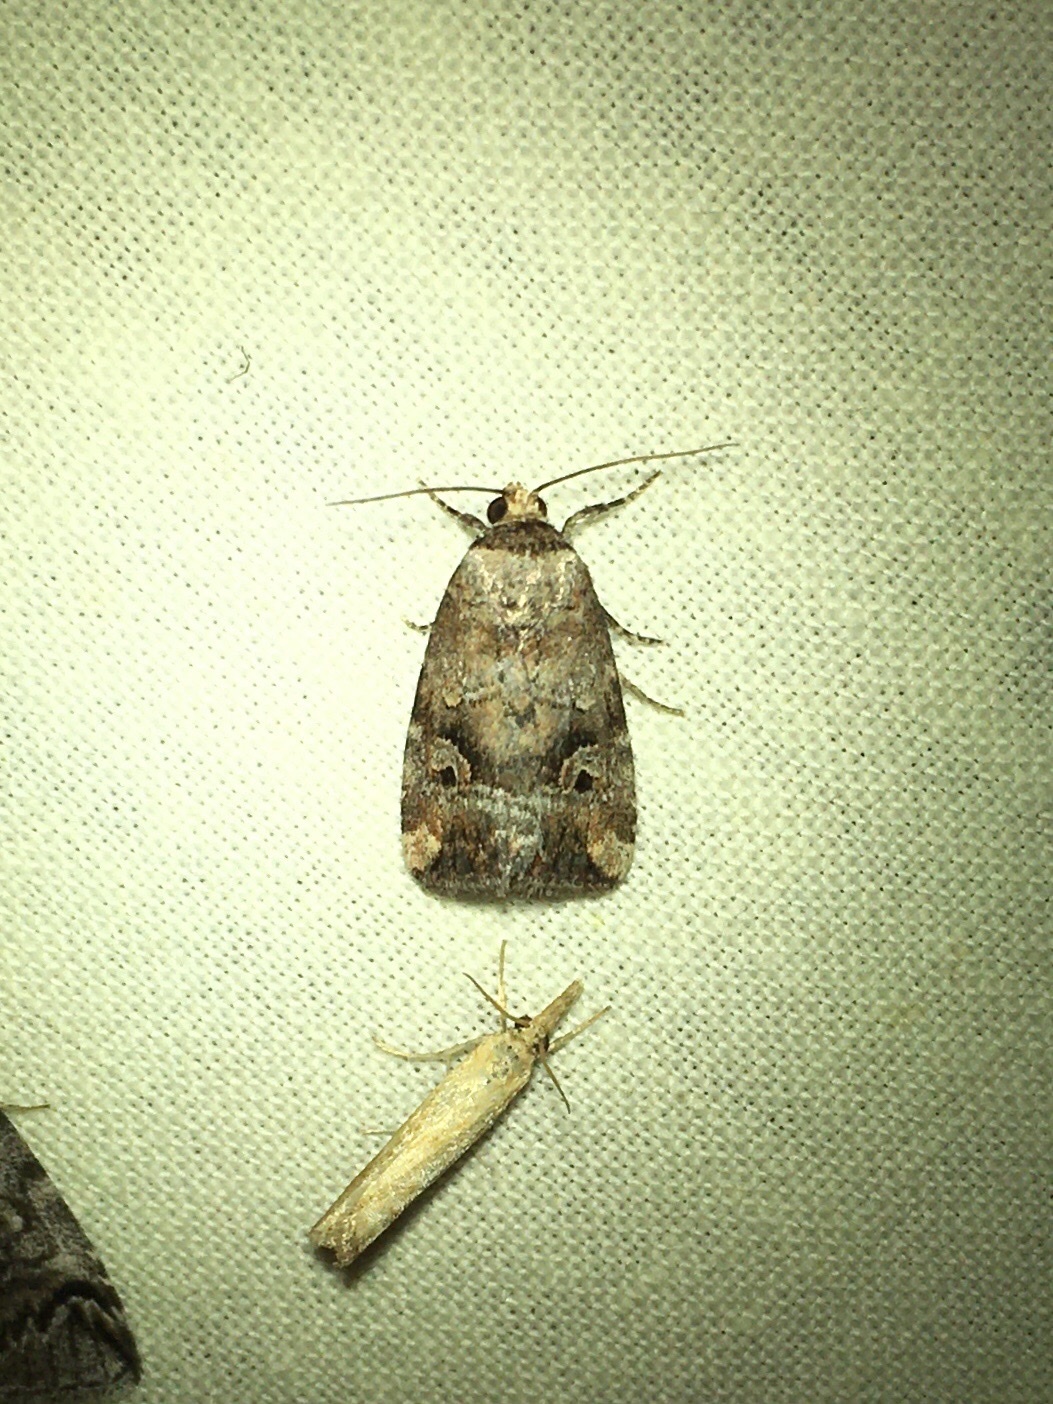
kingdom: Animalia
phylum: Arthropoda
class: Insecta
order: Lepidoptera
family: Noctuidae
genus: Elaphria
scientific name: Elaphria alapallida
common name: Pale-winged midget
